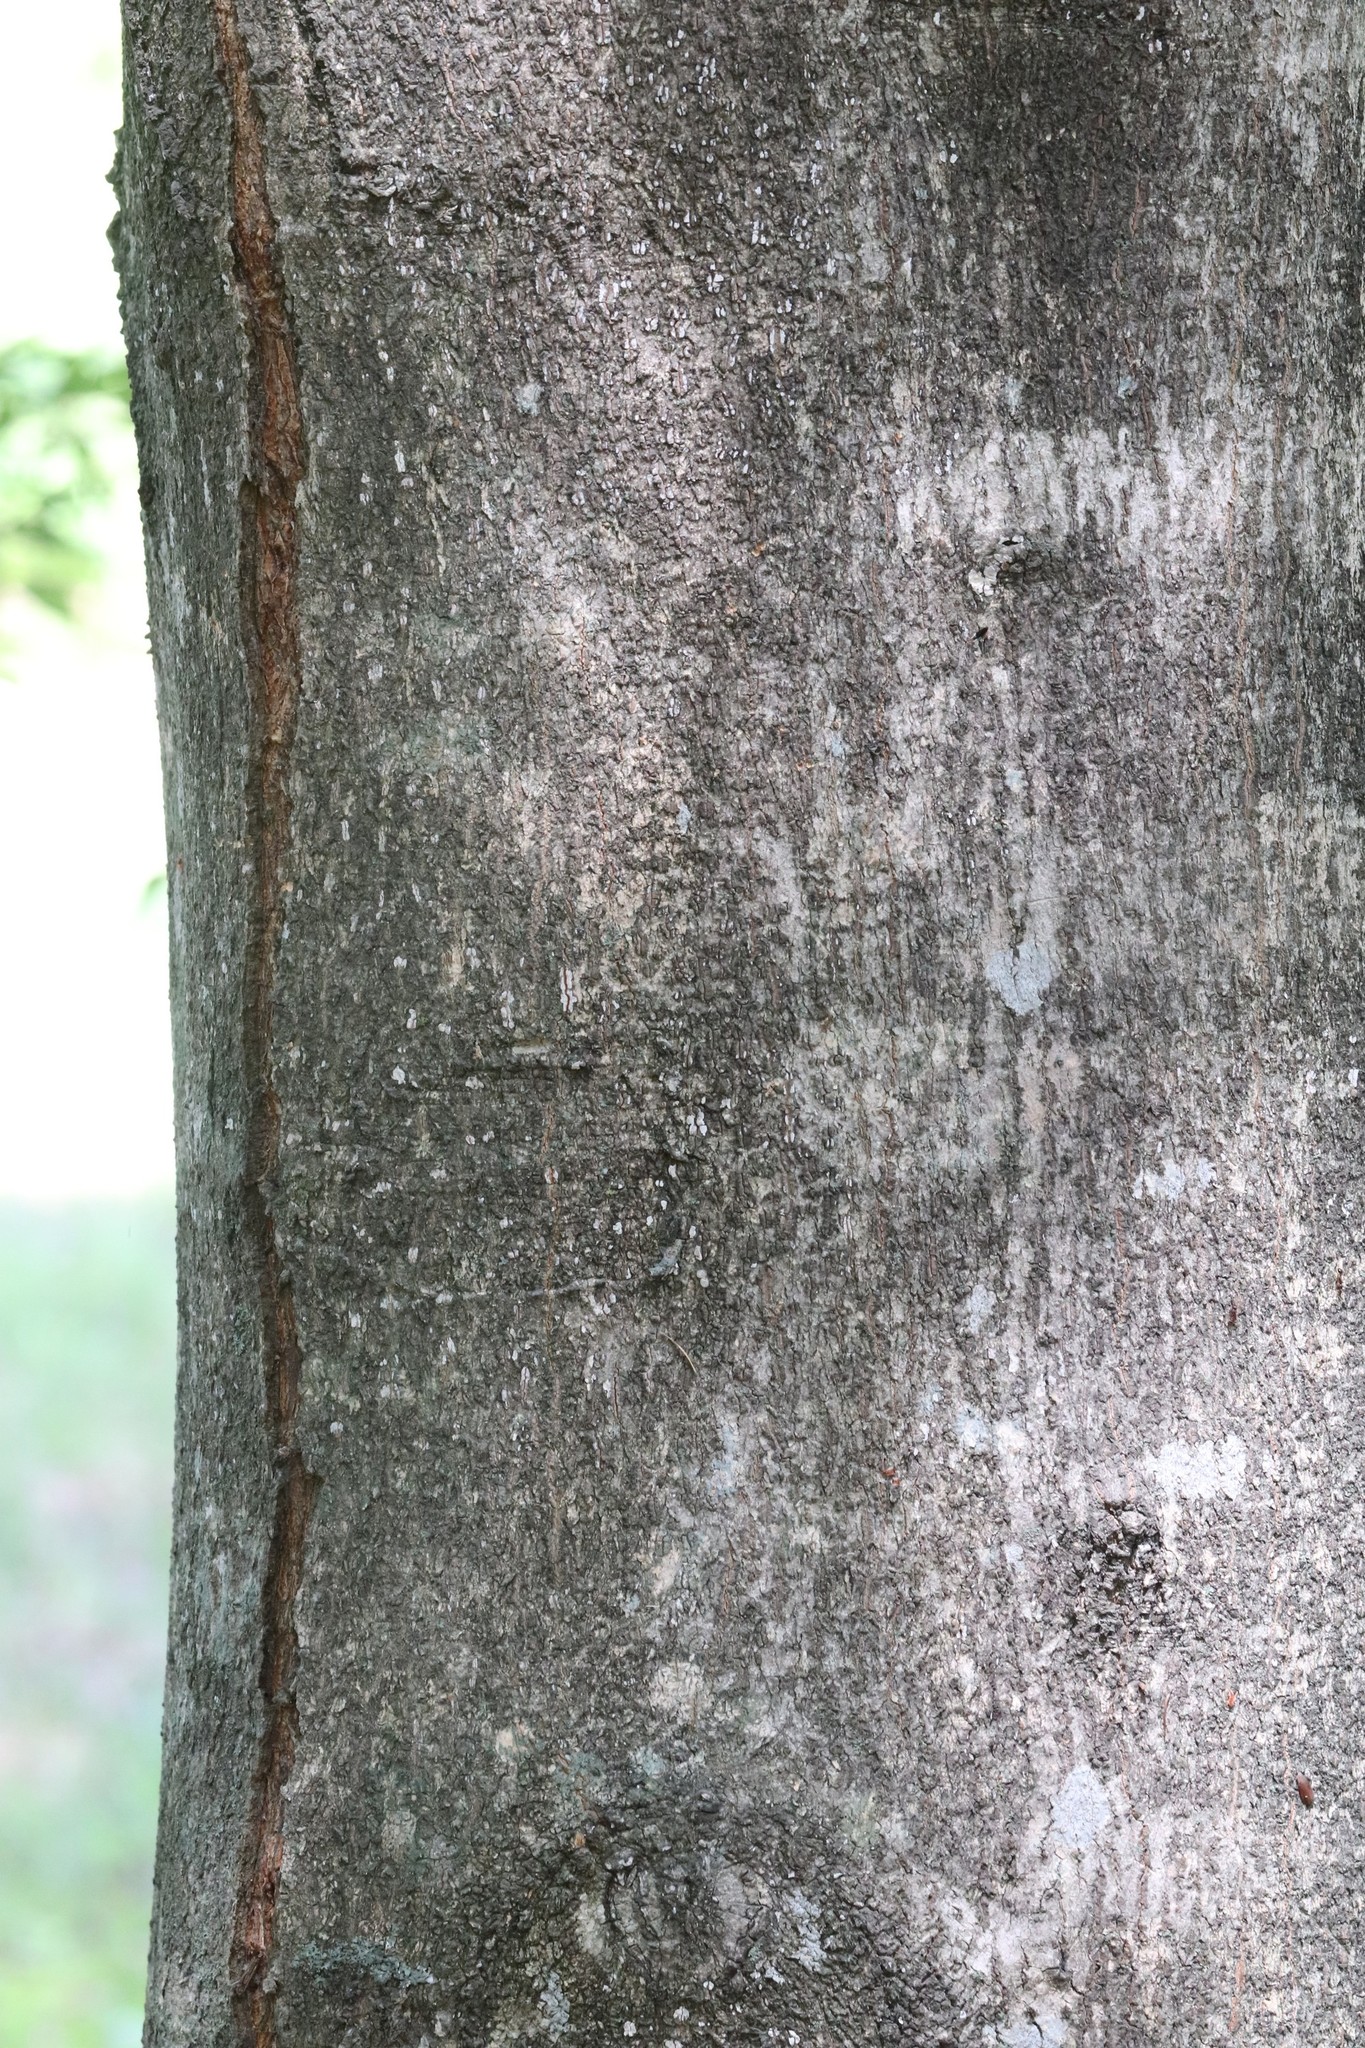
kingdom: Plantae
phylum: Tracheophyta
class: Magnoliopsida
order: Sapindales
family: Sapindaceae
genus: Acer
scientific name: Acer mandshuricum
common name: Manchurian maple
